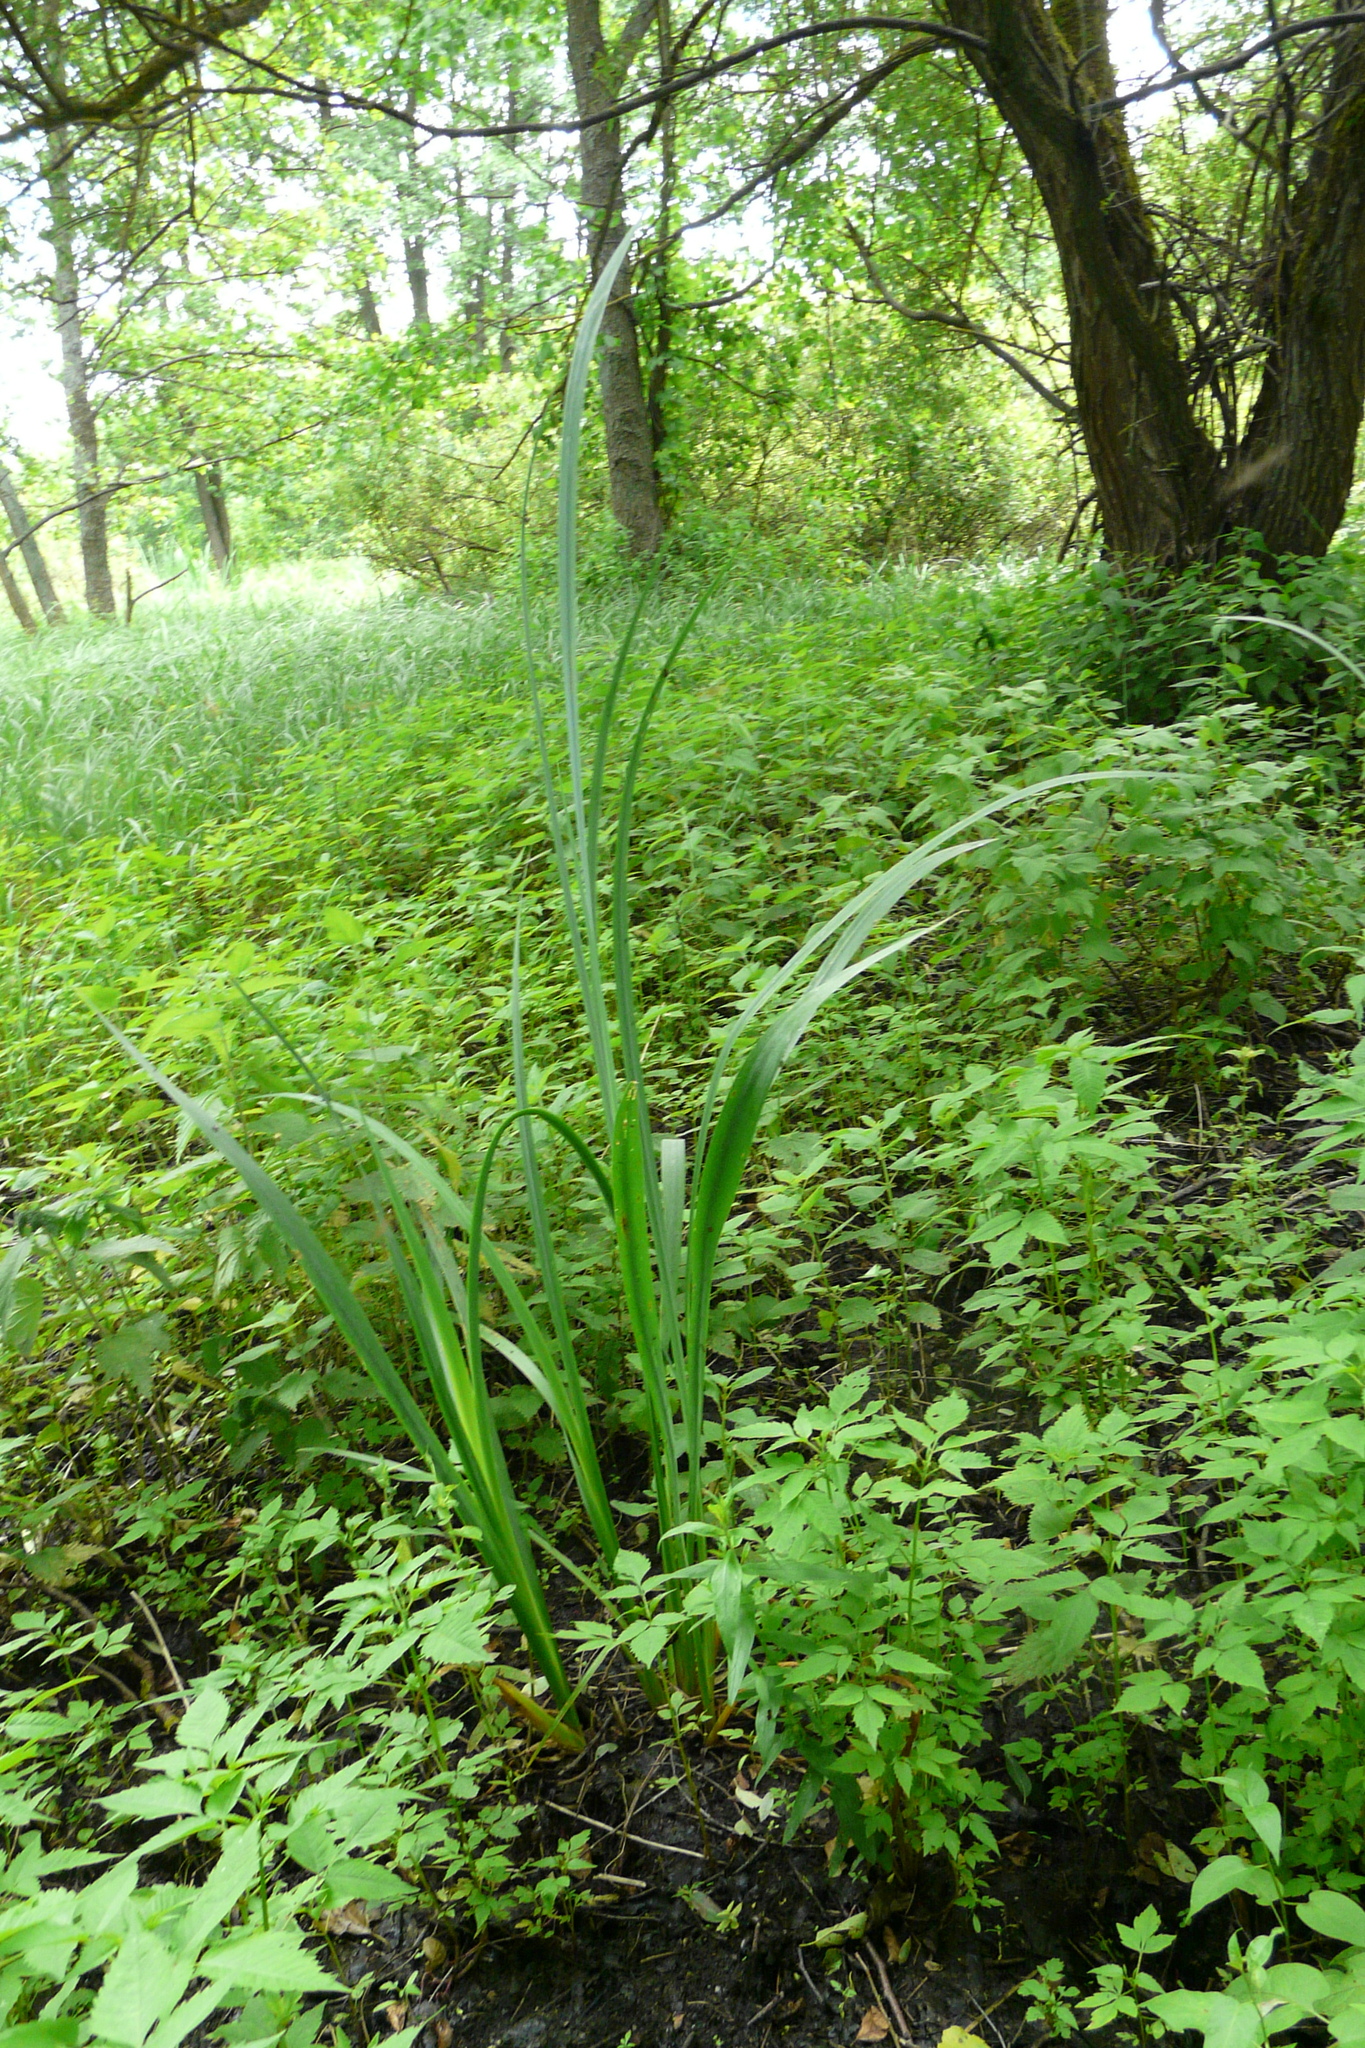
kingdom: Plantae
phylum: Tracheophyta
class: Liliopsida
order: Asparagales
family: Iridaceae
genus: Iris
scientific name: Iris pseudacorus
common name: Yellow flag
